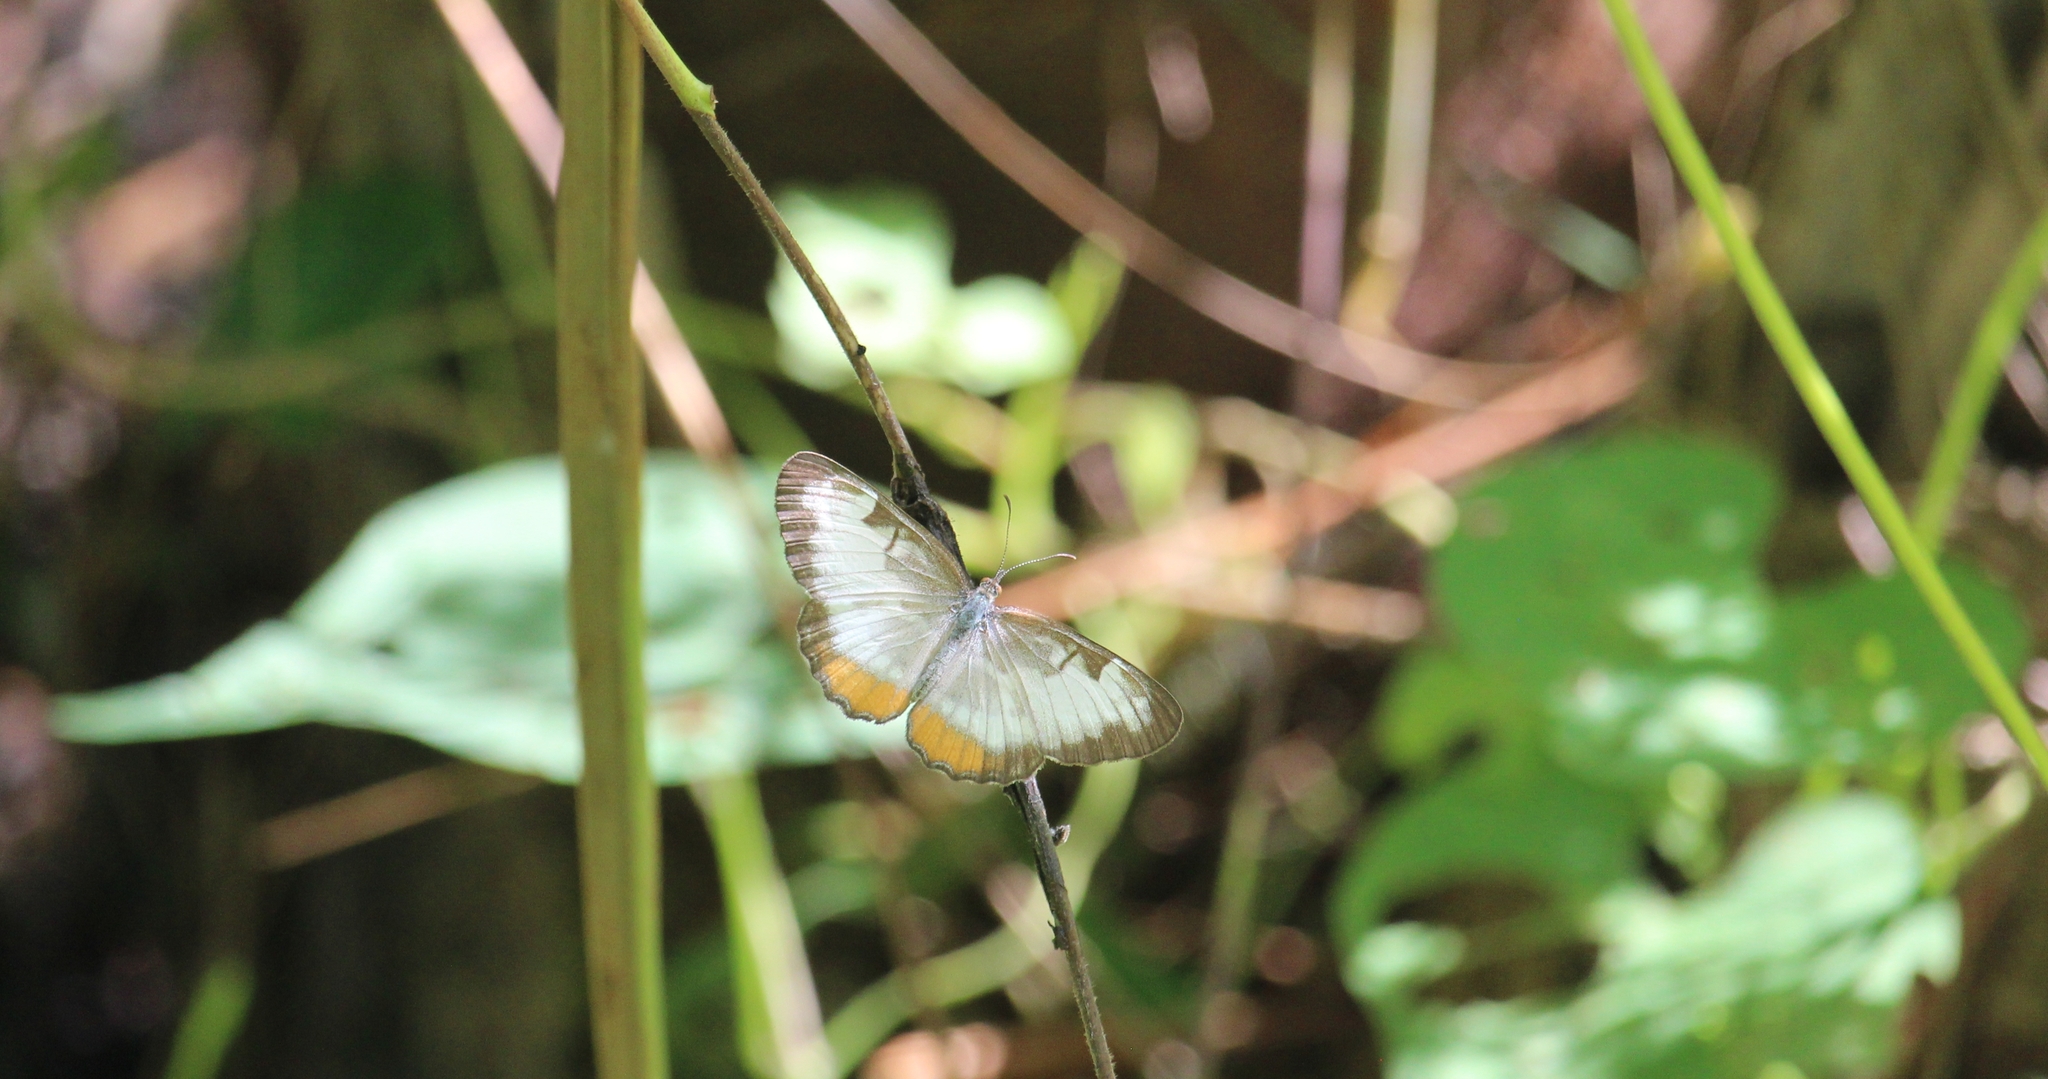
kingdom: Animalia
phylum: Arthropoda
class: Insecta
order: Lepidoptera
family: Nymphalidae
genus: Mestra
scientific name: Mestra amymone
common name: Common mestra
